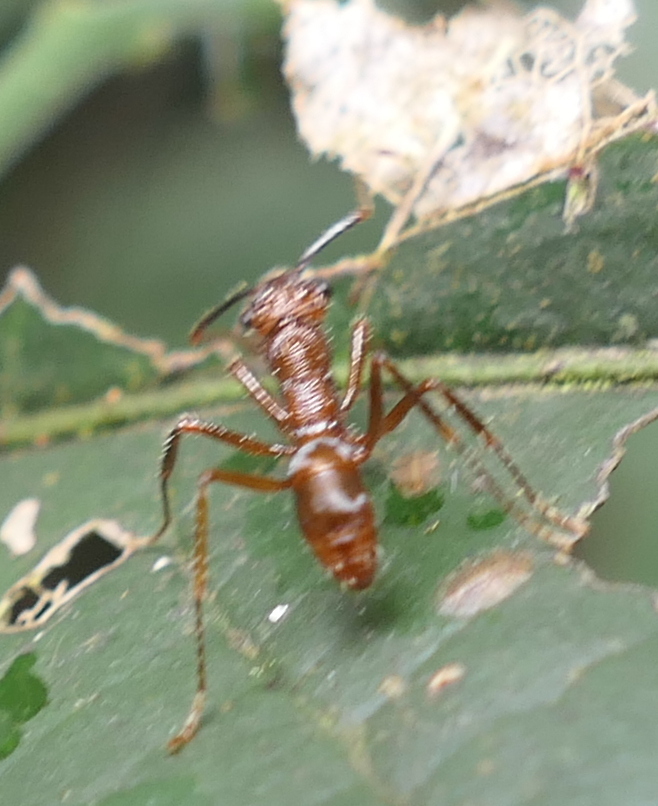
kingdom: Animalia
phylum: Arthropoda
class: Insecta
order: Hymenoptera
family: Formicidae
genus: Ectatomma
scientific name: Ectatomma tuberculatum
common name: Ant
